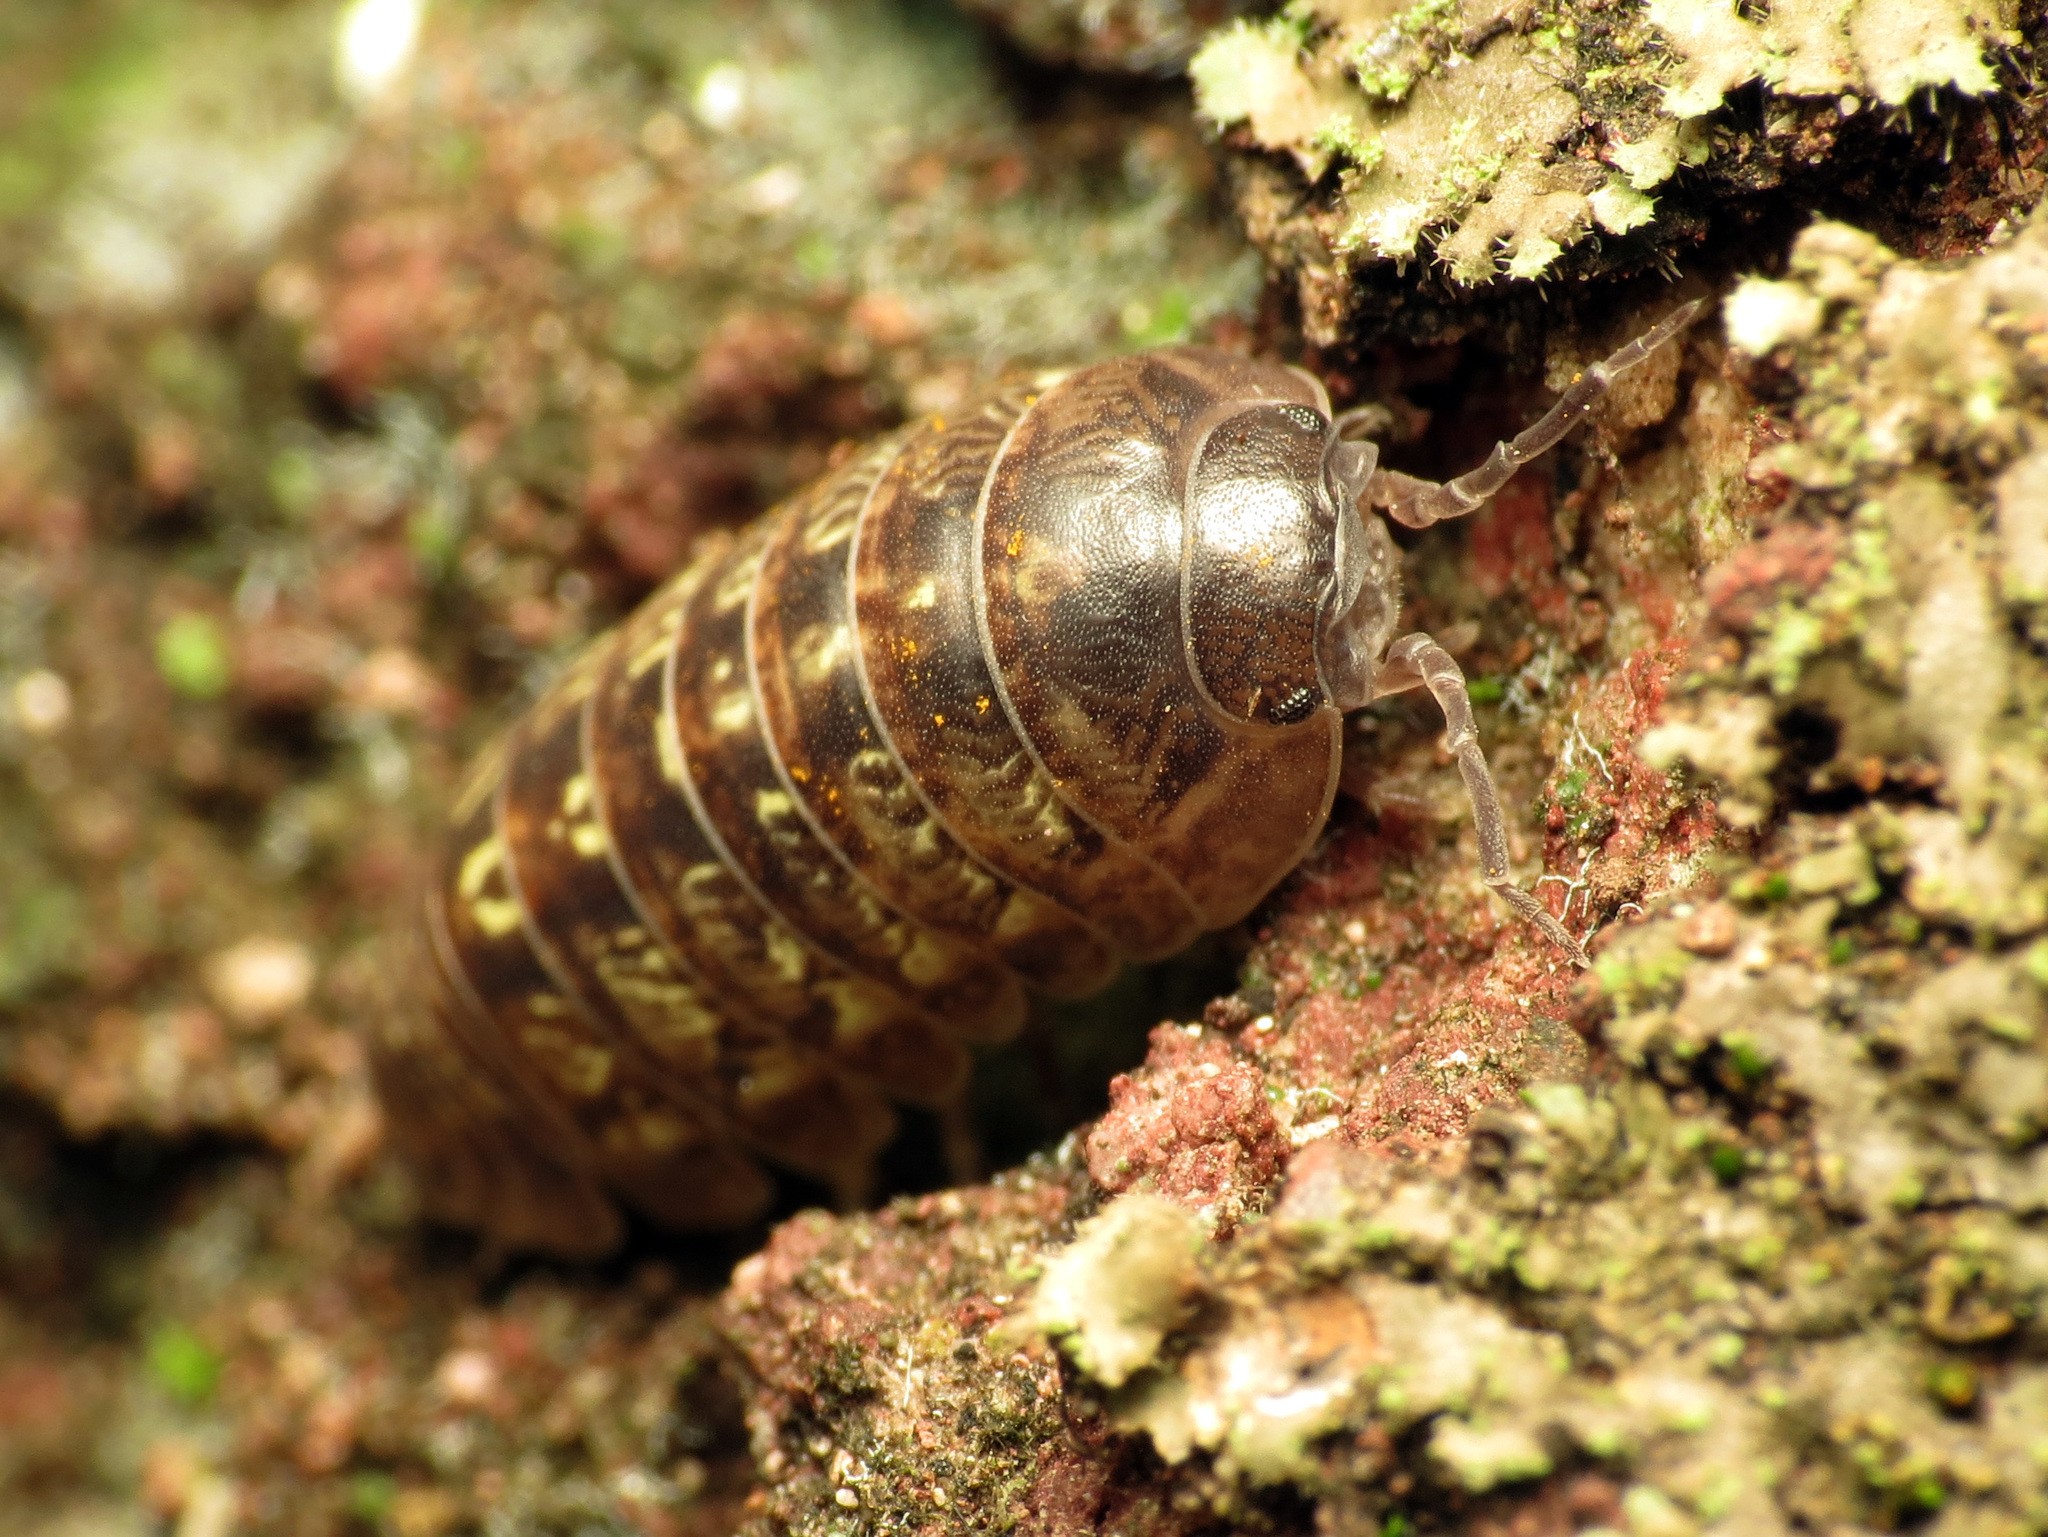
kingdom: Animalia
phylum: Arthropoda
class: Malacostraca
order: Isopoda
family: Armadillidiidae
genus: Armadillidium
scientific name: Armadillidium vulgare
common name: Common pill woodlouse
